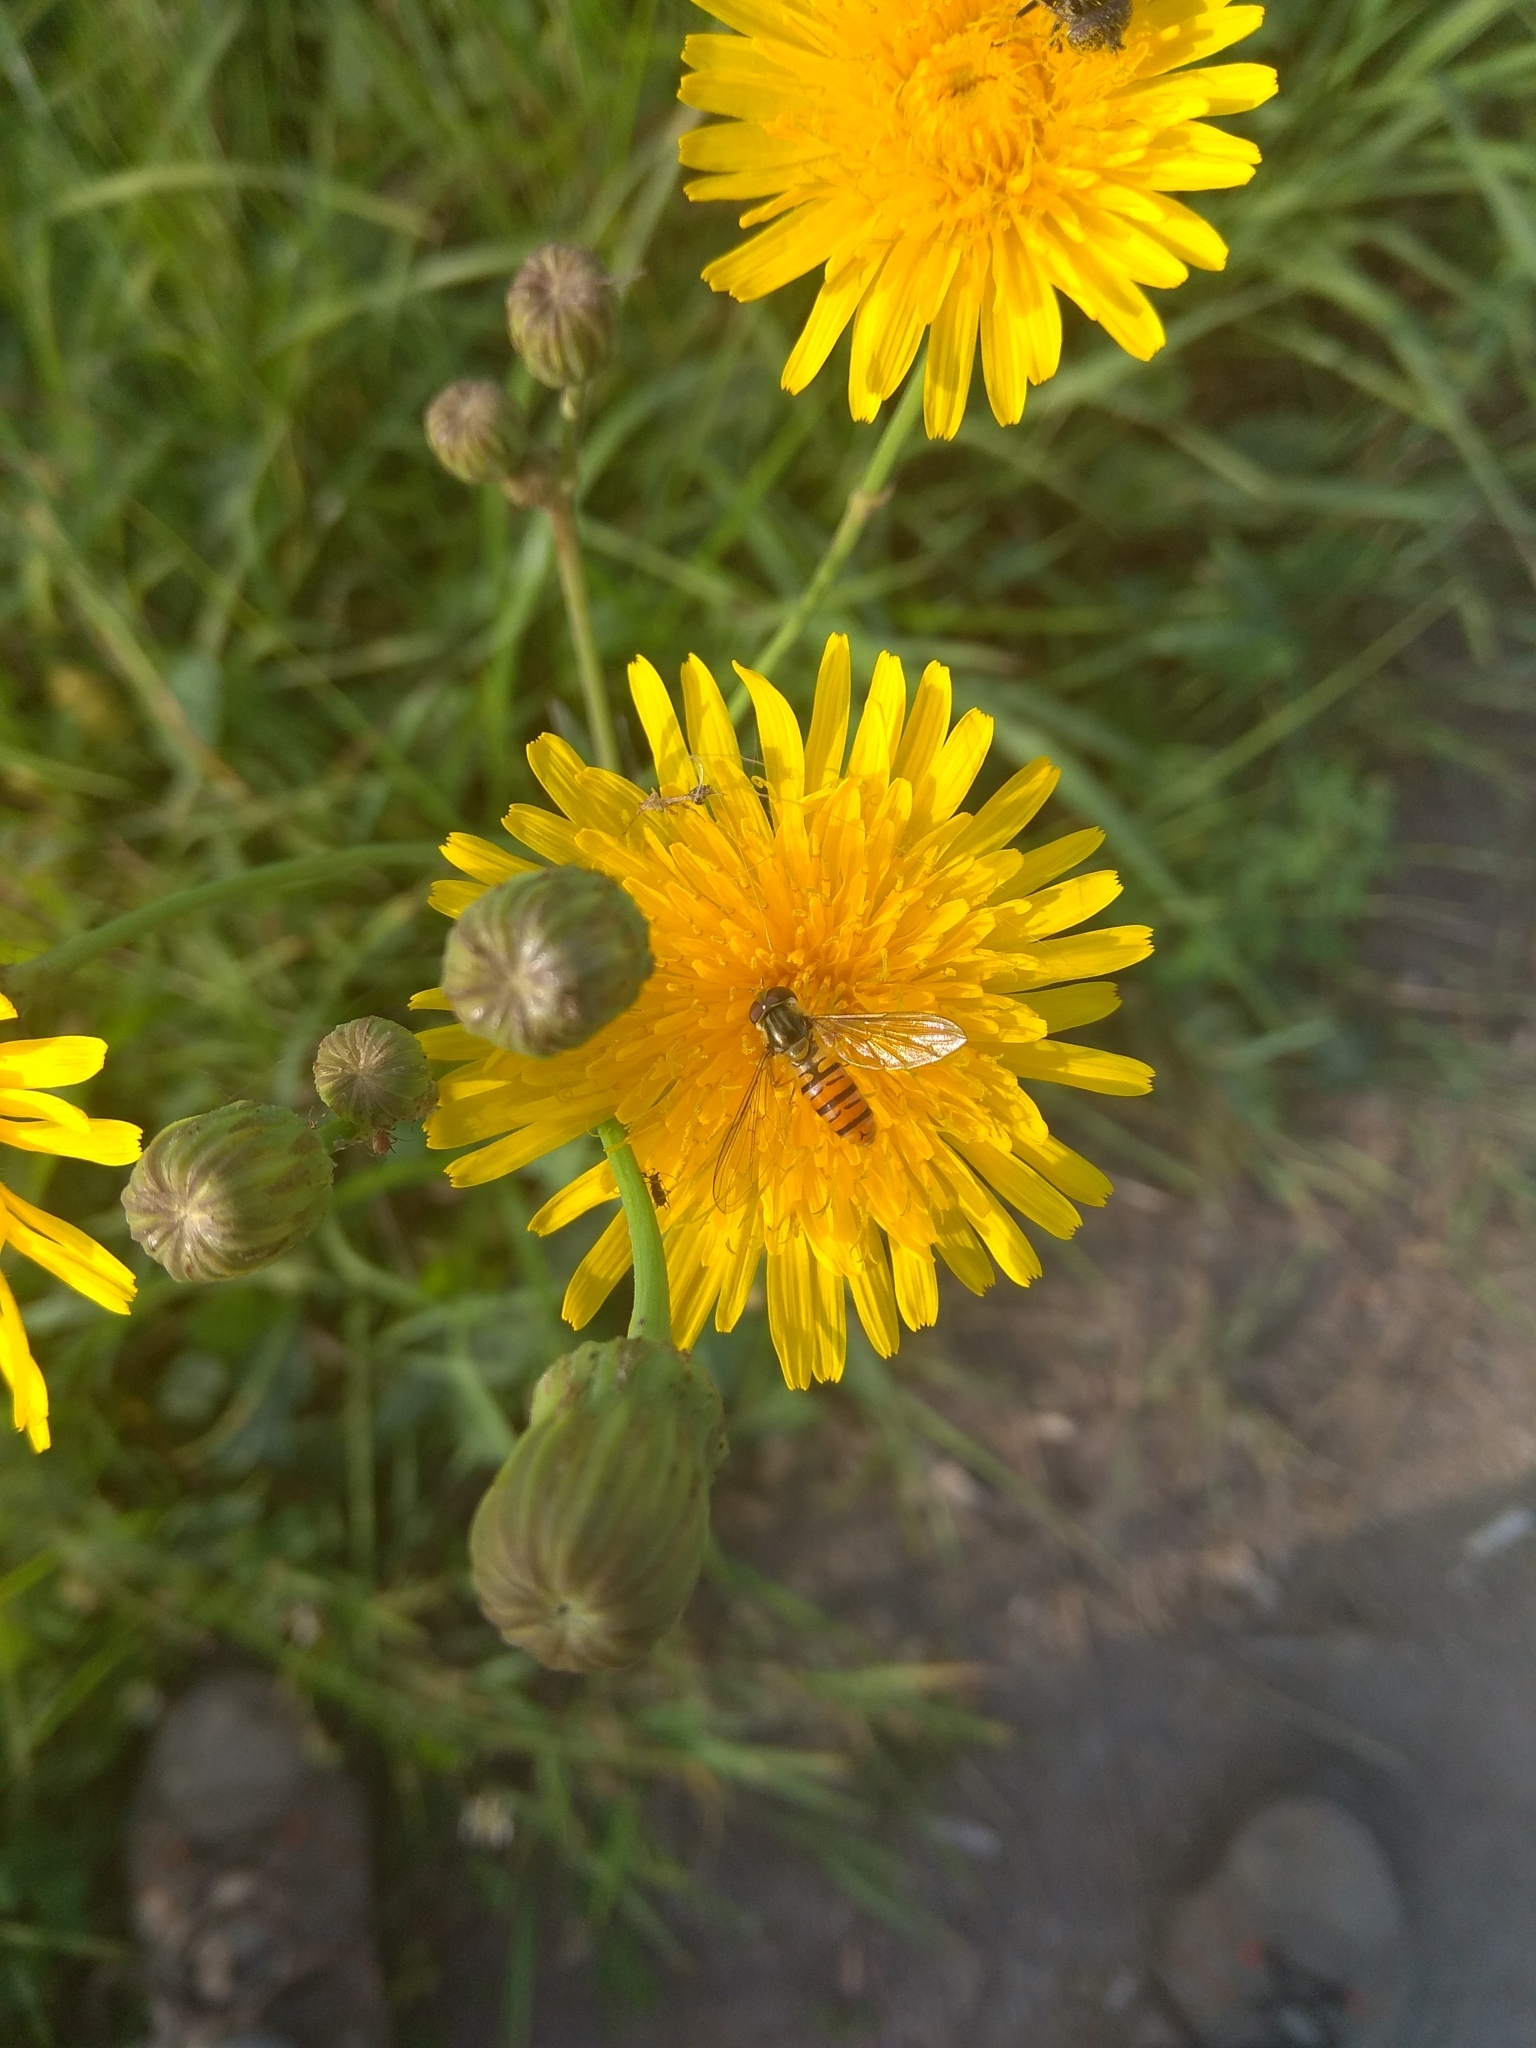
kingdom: Animalia
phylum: Arthropoda
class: Insecta
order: Diptera
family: Syrphidae
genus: Episyrphus
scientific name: Episyrphus balteatus
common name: Marmalade hoverfly
